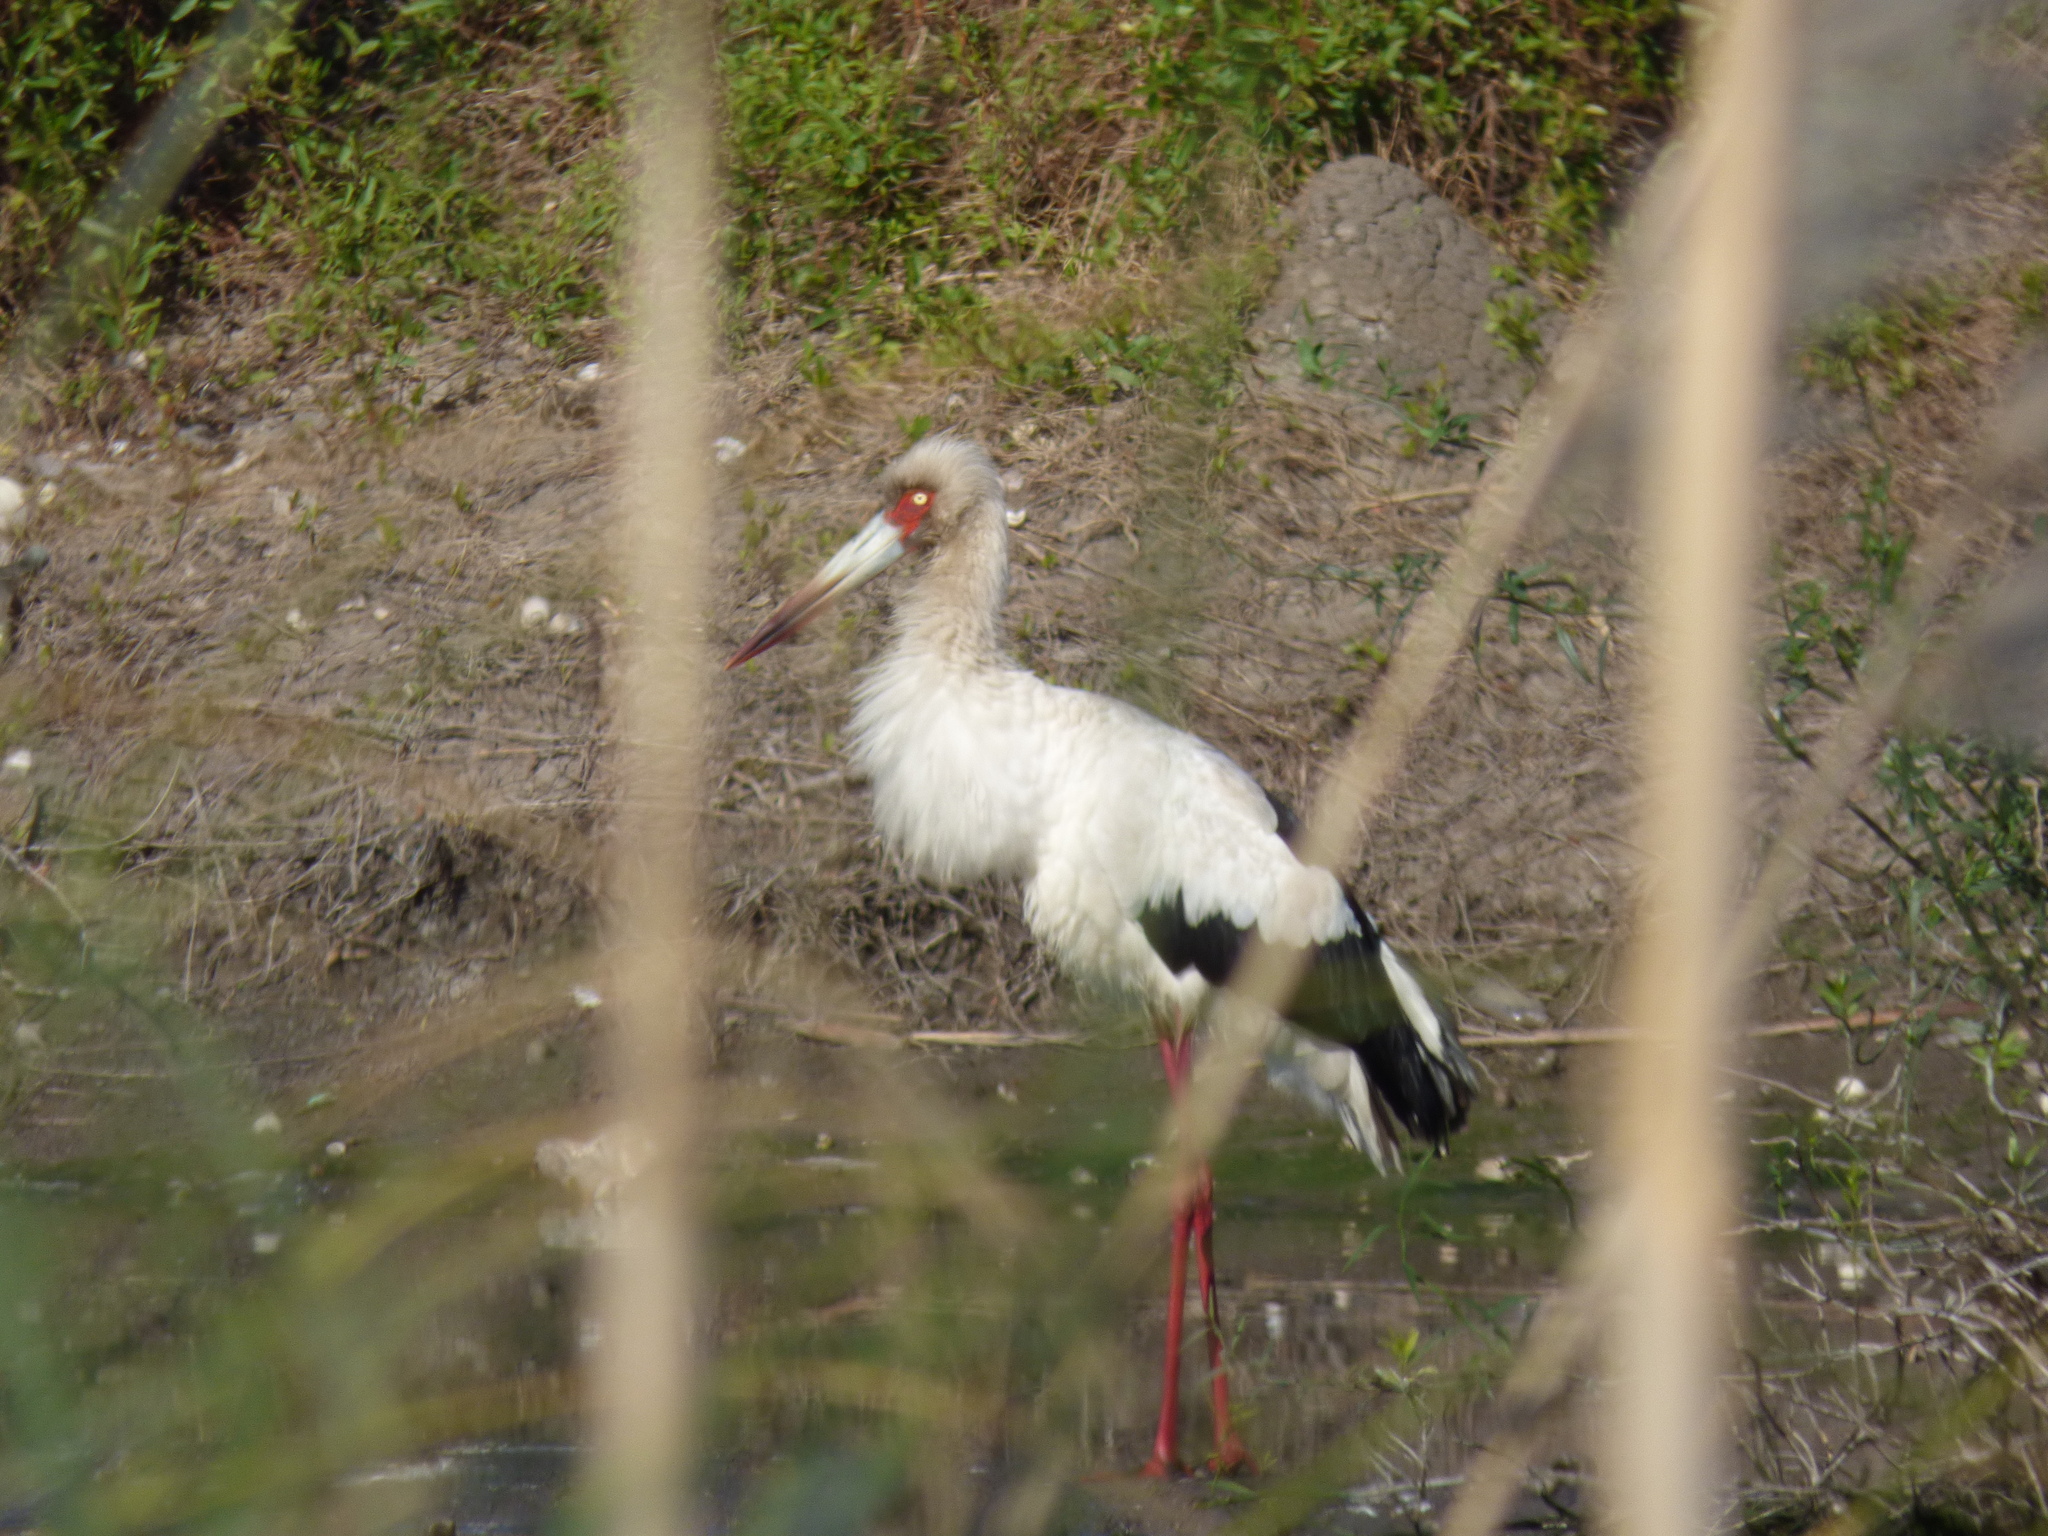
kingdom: Animalia
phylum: Chordata
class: Aves
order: Ciconiiformes
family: Ciconiidae
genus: Ciconia
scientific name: Ciconia maguari
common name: Maguari stork
